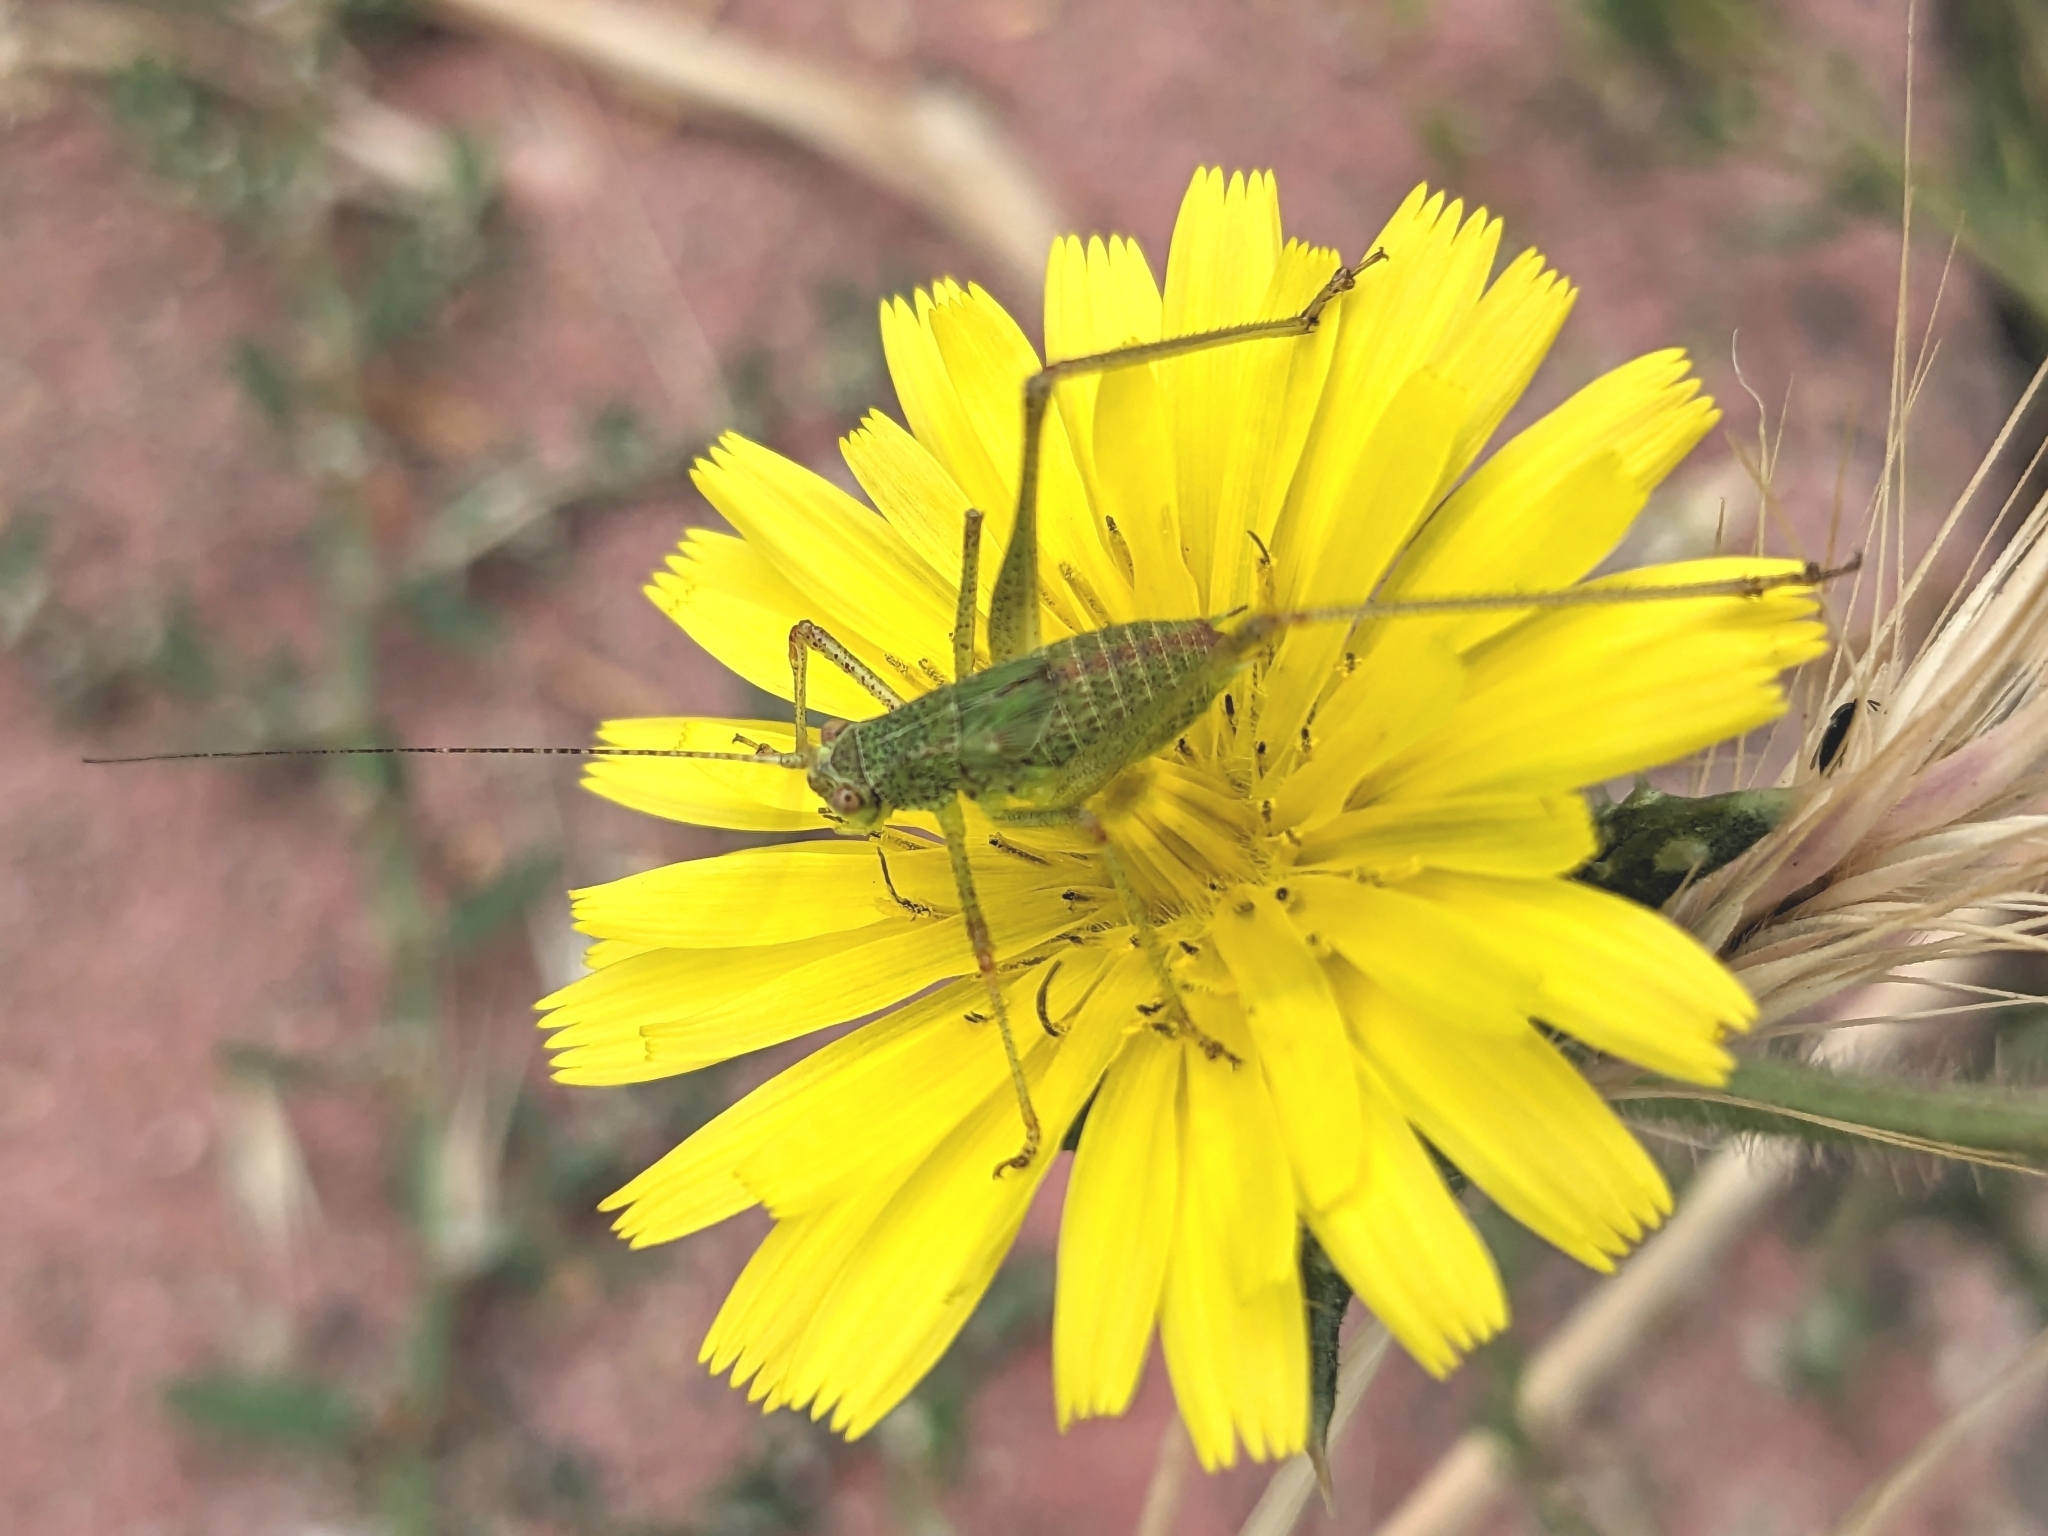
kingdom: Animalia
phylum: Arthropoda
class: Insecta
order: Orthoptera
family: Tettigoniidae
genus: Phaneroptera
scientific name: Phaneroptera nana
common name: Southern sickle bush-cricket
